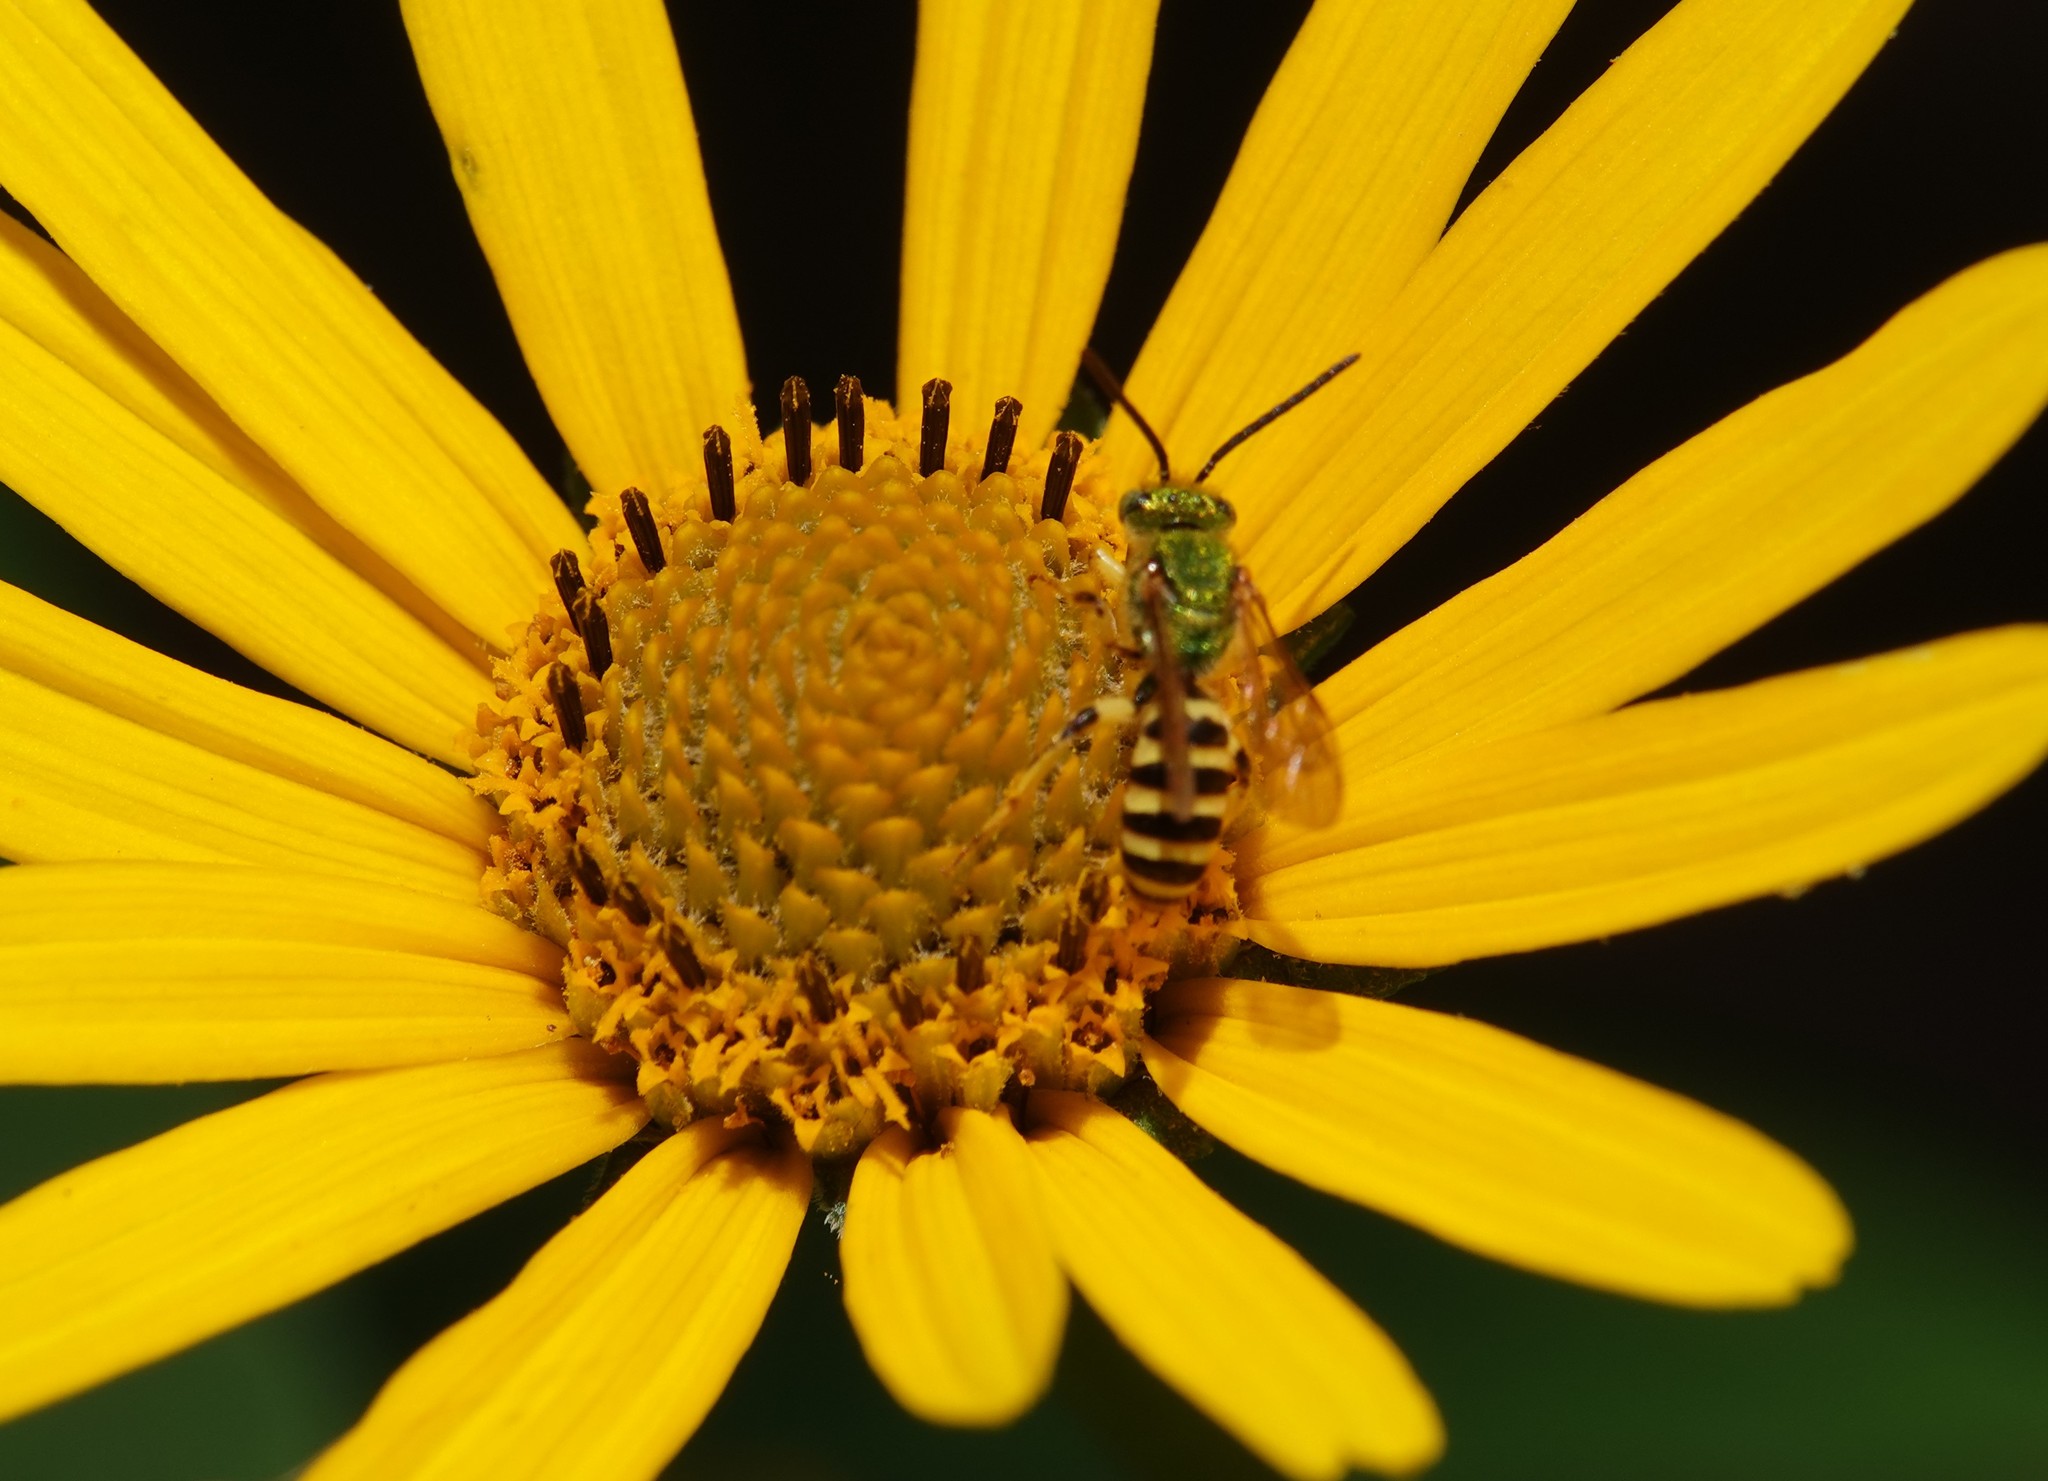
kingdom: Animalia
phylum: Arthropoda
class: Insecta
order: Hymenoptera
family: Halictidae
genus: Agapostemon
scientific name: Agapostemon virescens
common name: Bicolored striped sweat bee
